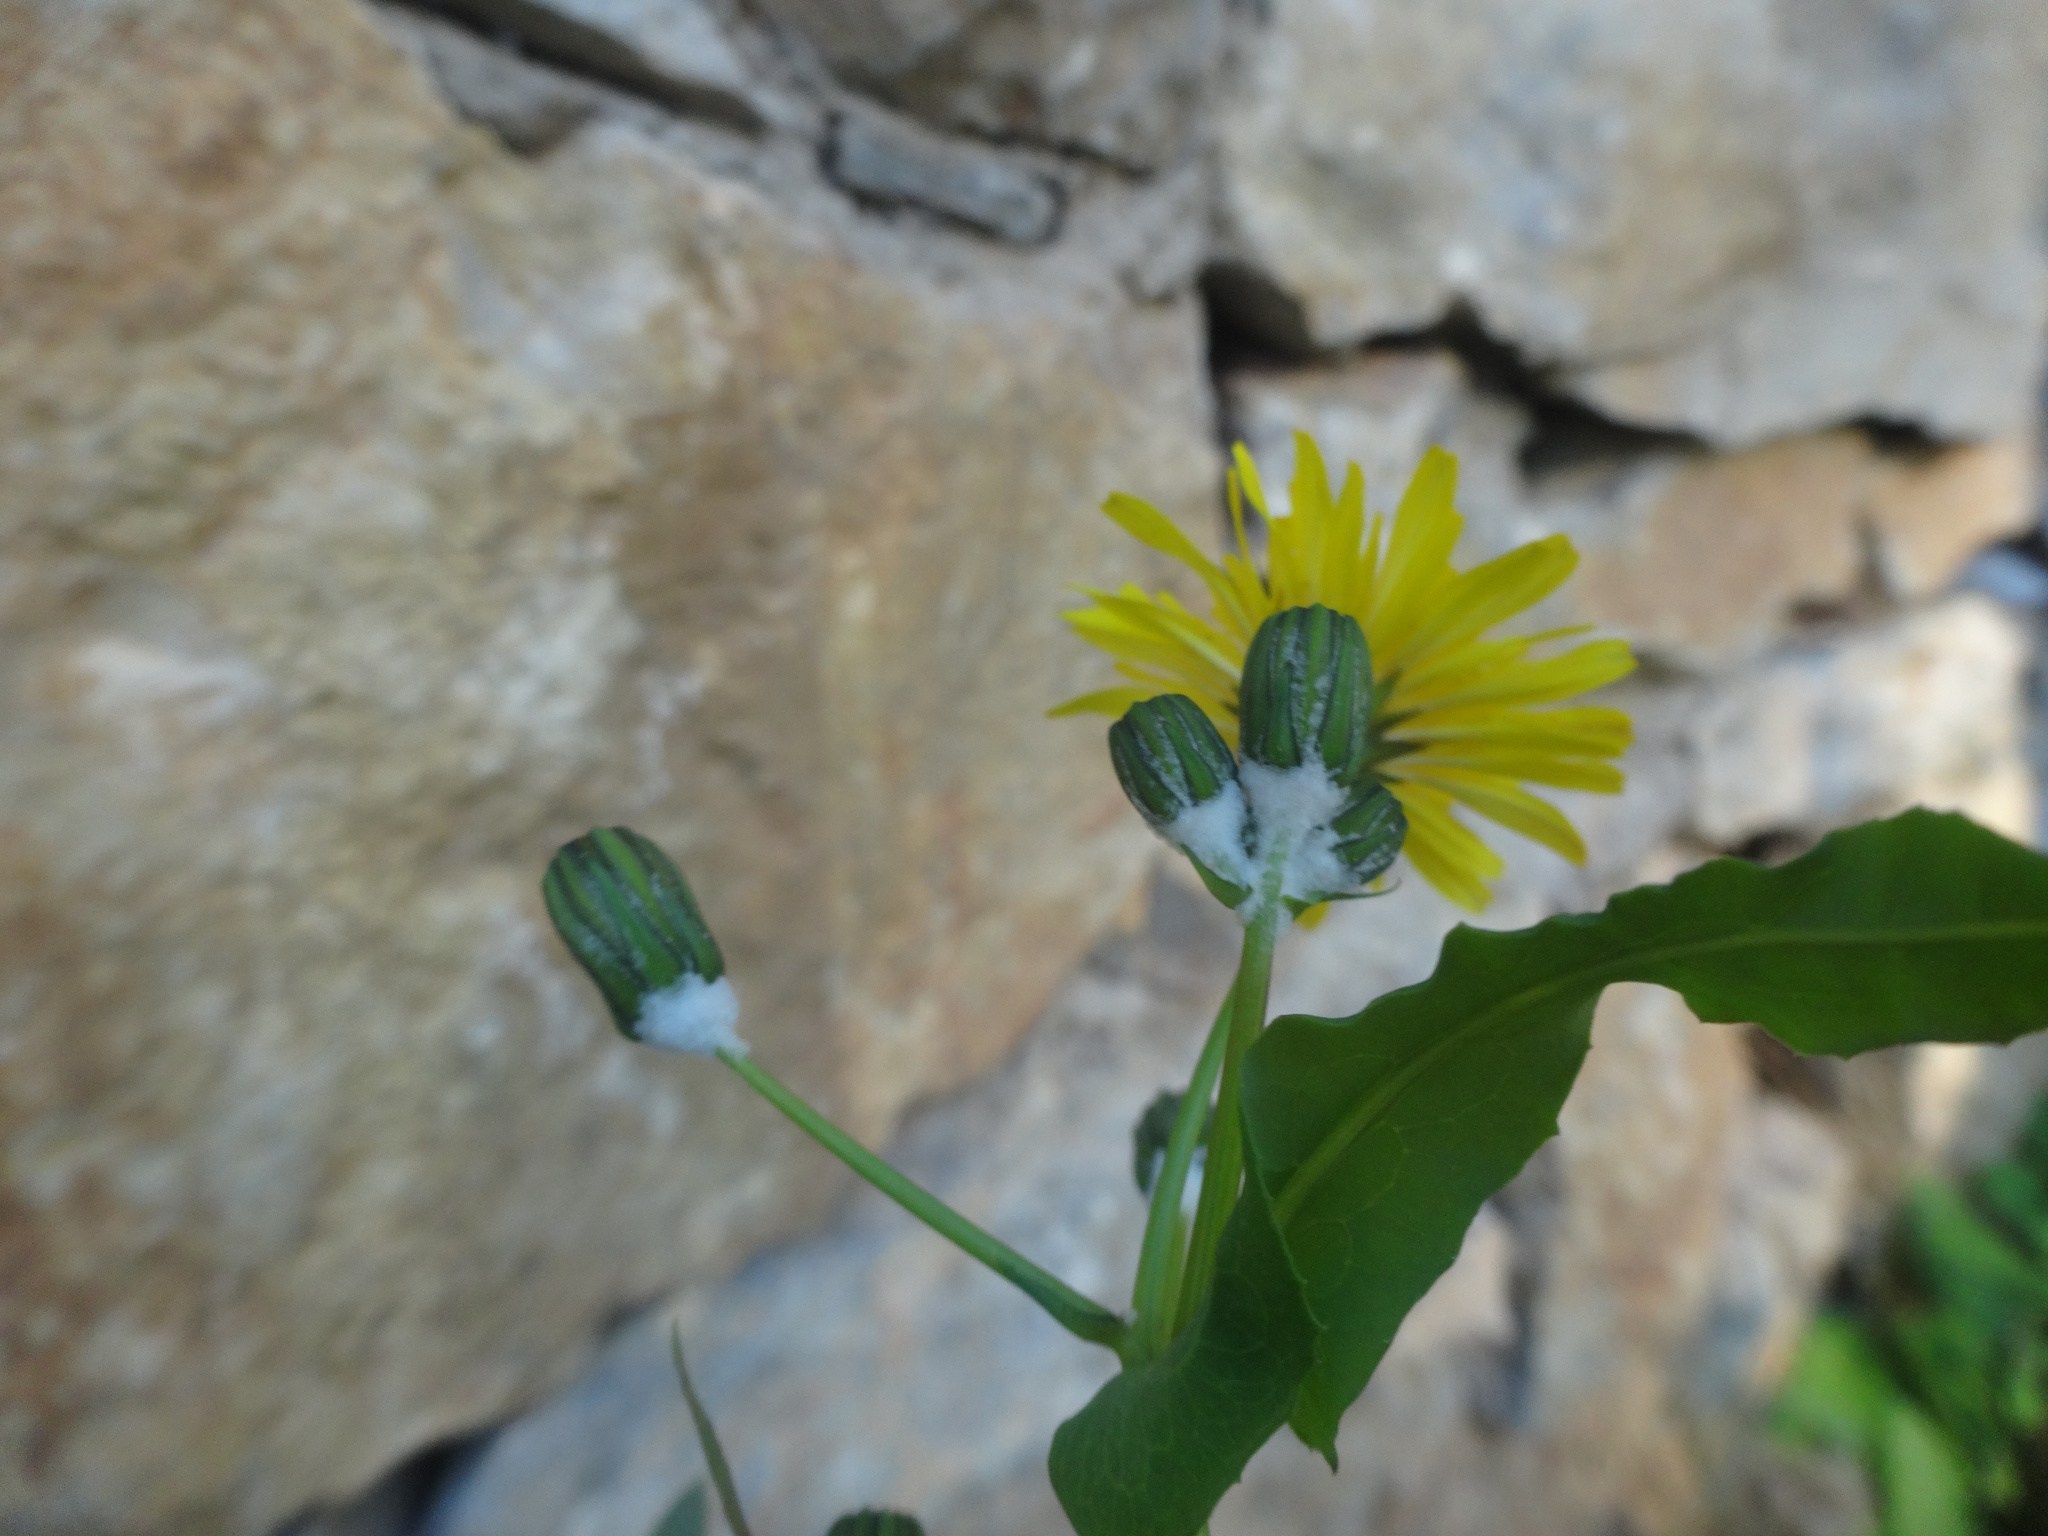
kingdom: Plantae
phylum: Tracheophyta
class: Magnoliopsida
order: Asterales
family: Asteraceae
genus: Sonchus
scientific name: Sonchus tenerrimus
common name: Clammy sowthistle
